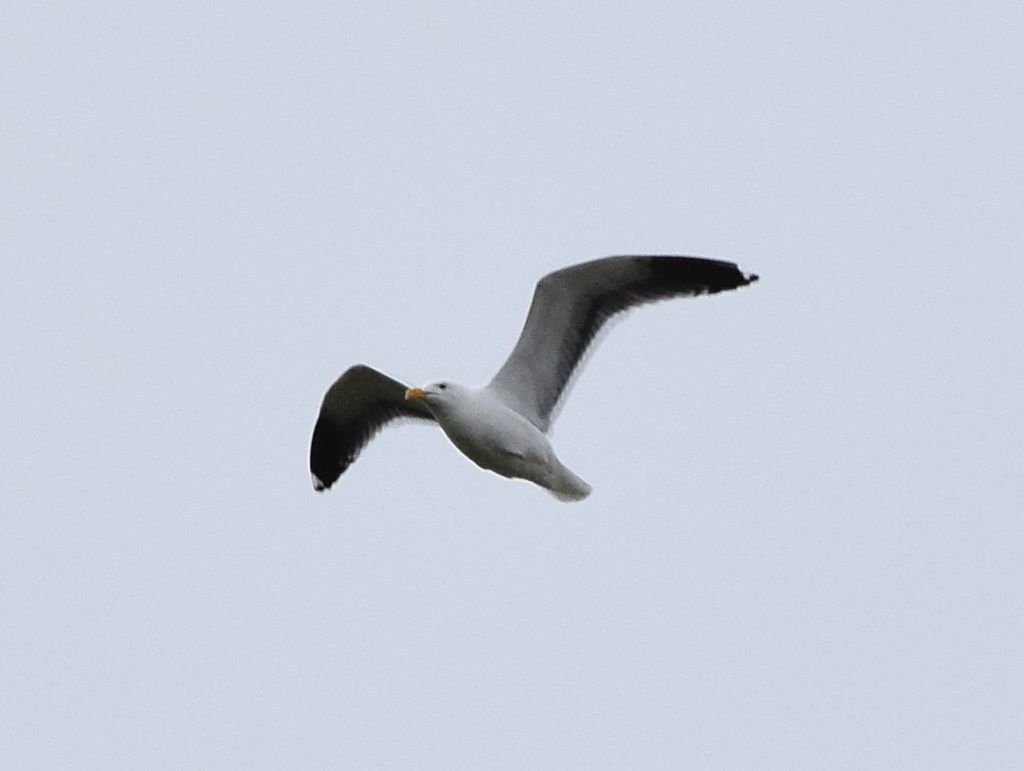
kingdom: Animalia
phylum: Chordata
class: Aves
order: Charadriiformes
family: Laridae
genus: Larus
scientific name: Larus occidentalis
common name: Western gull
